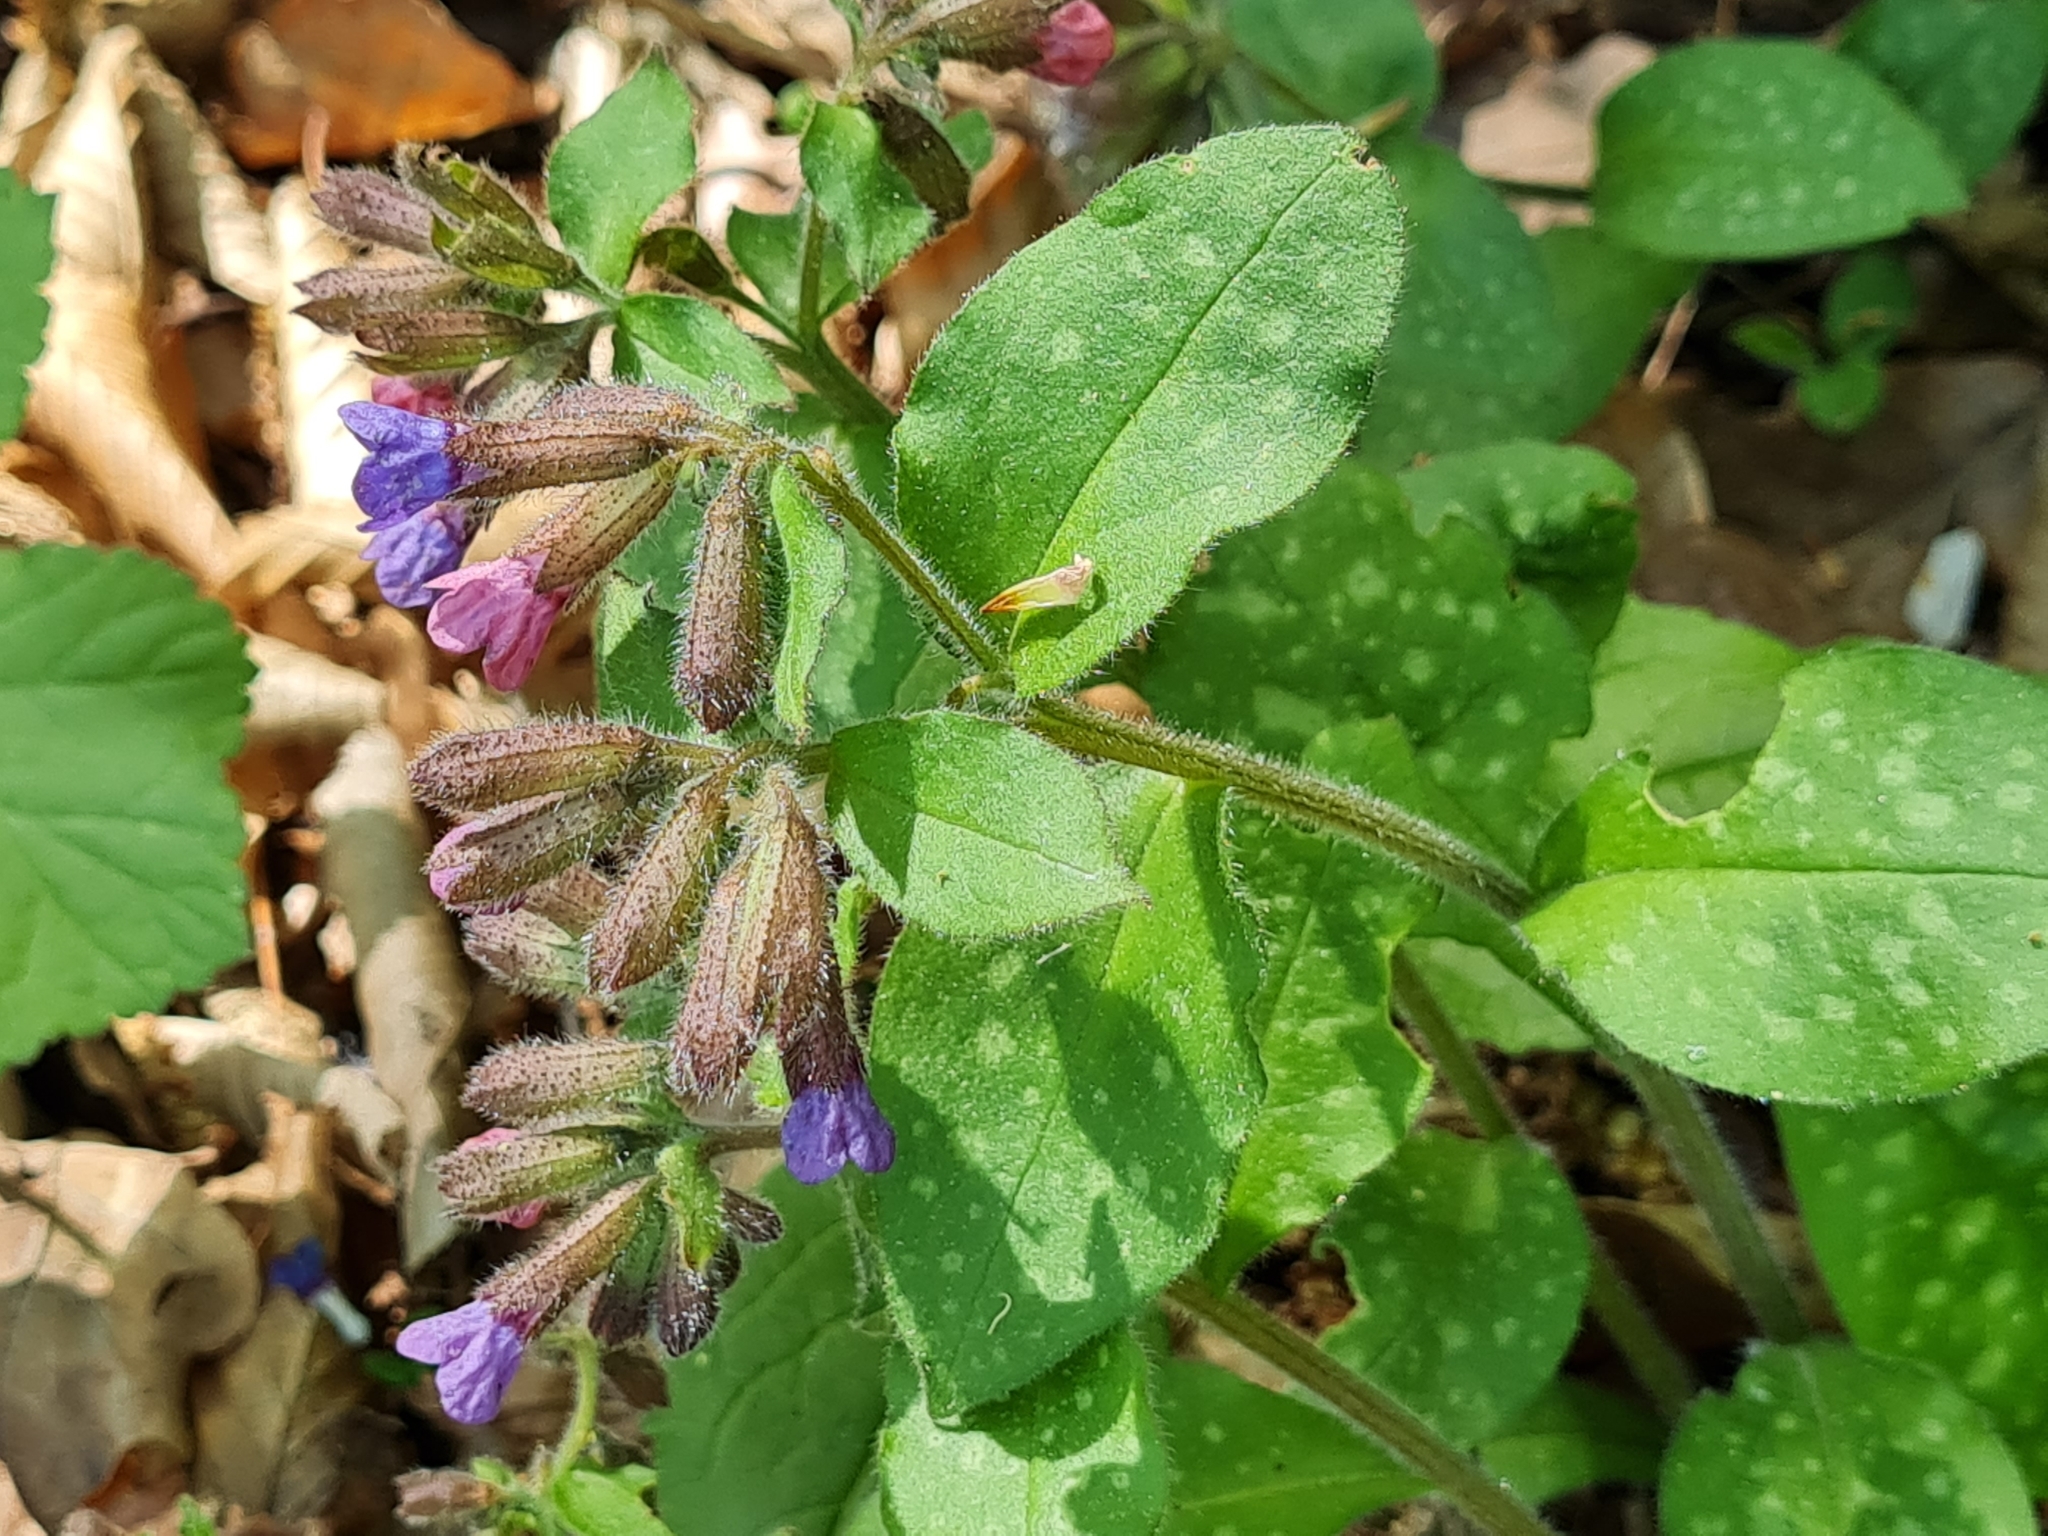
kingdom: Plantae
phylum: Tracheophyta
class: Magnoliopsida
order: Boraginales
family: Boraginaceae
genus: Pulmonaria
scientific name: Pulmonaria officinalis
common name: Lungwort
